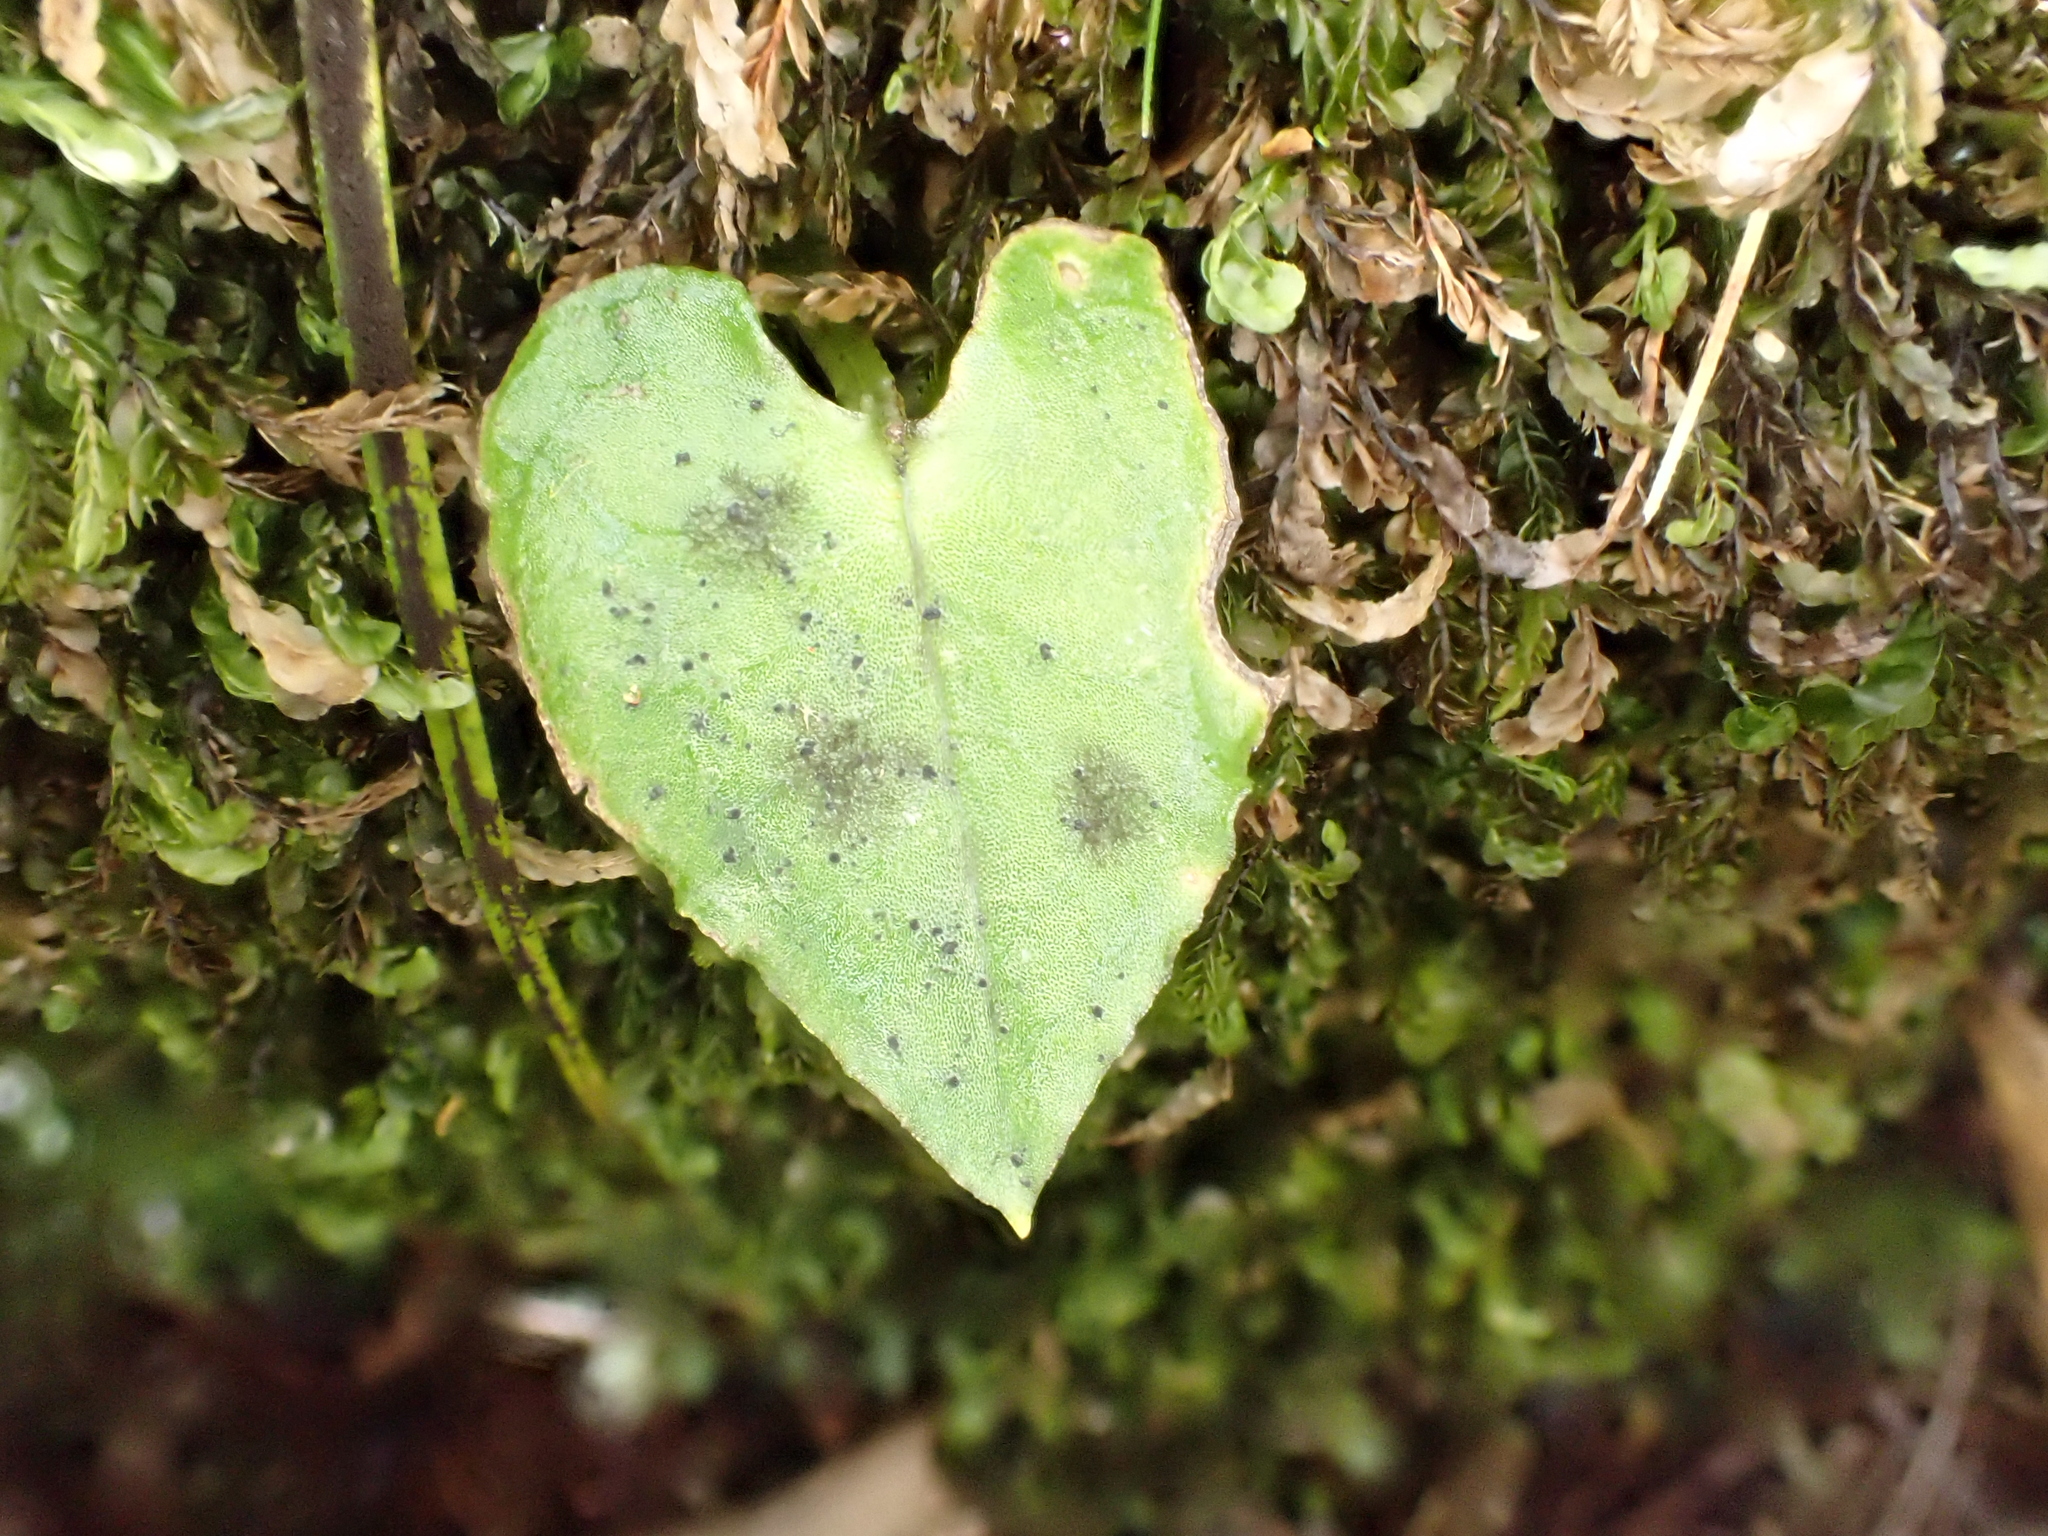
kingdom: Plantae
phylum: Tracheophyta
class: Liliopsida
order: Asparagales
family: Orchidaceae
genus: Corybas
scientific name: Corybas acuminatus
